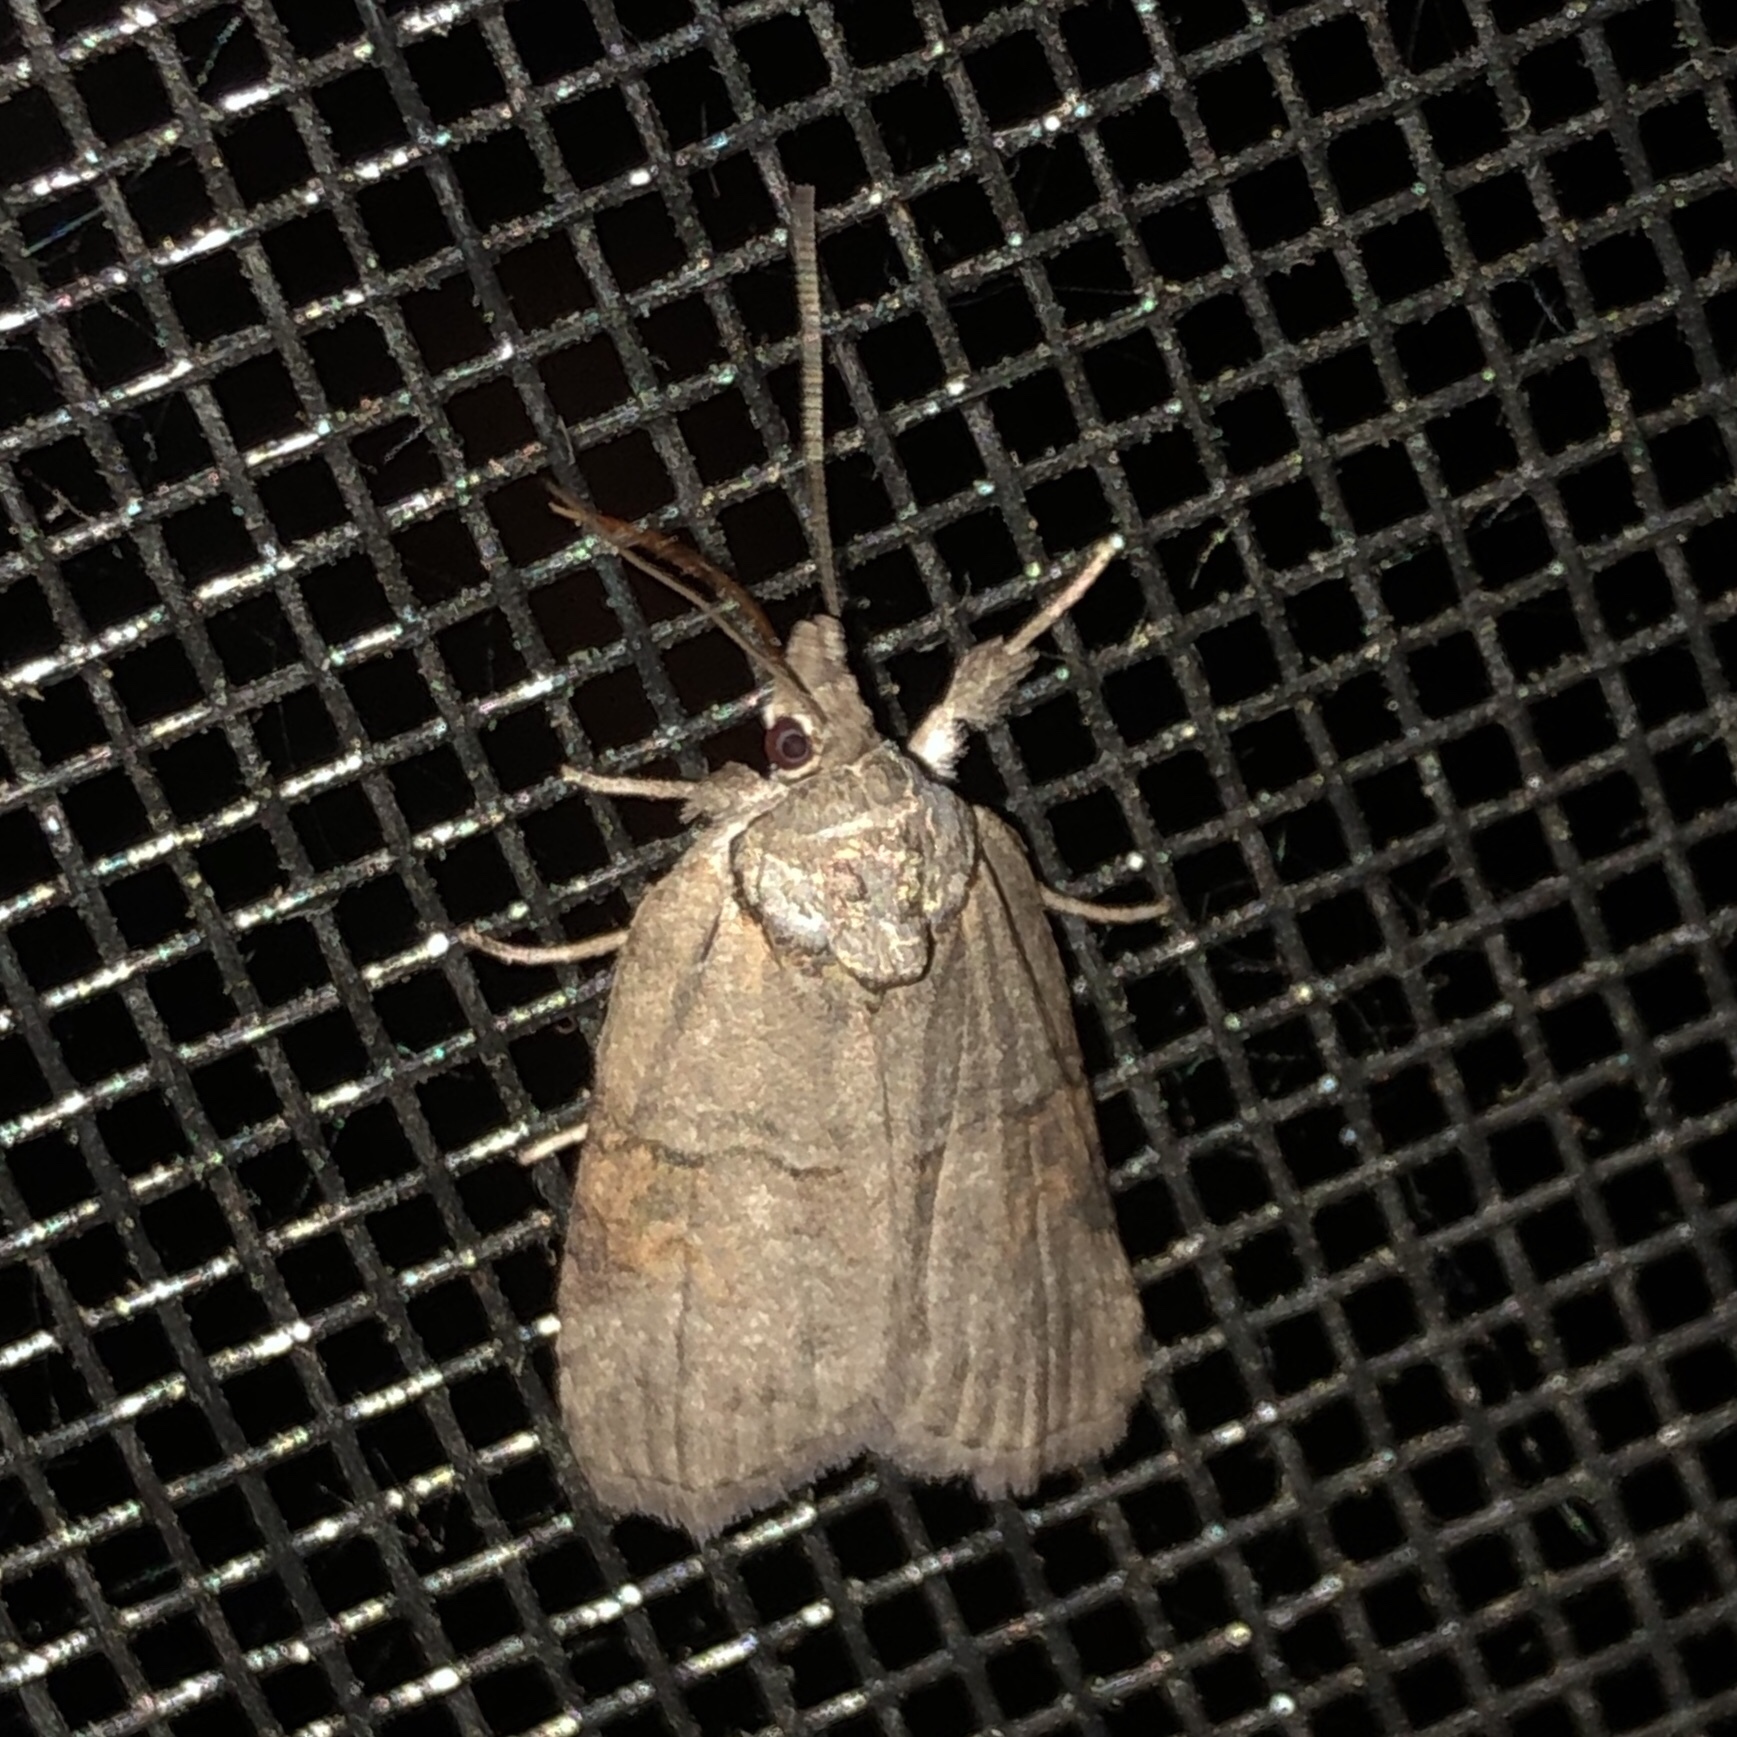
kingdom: Animalia
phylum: Arthropoda
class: Insecta
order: Lepidoptera
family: Nolidae
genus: Nycteola
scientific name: Nycteola metaspilella
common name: Forgotten frigid owlet
